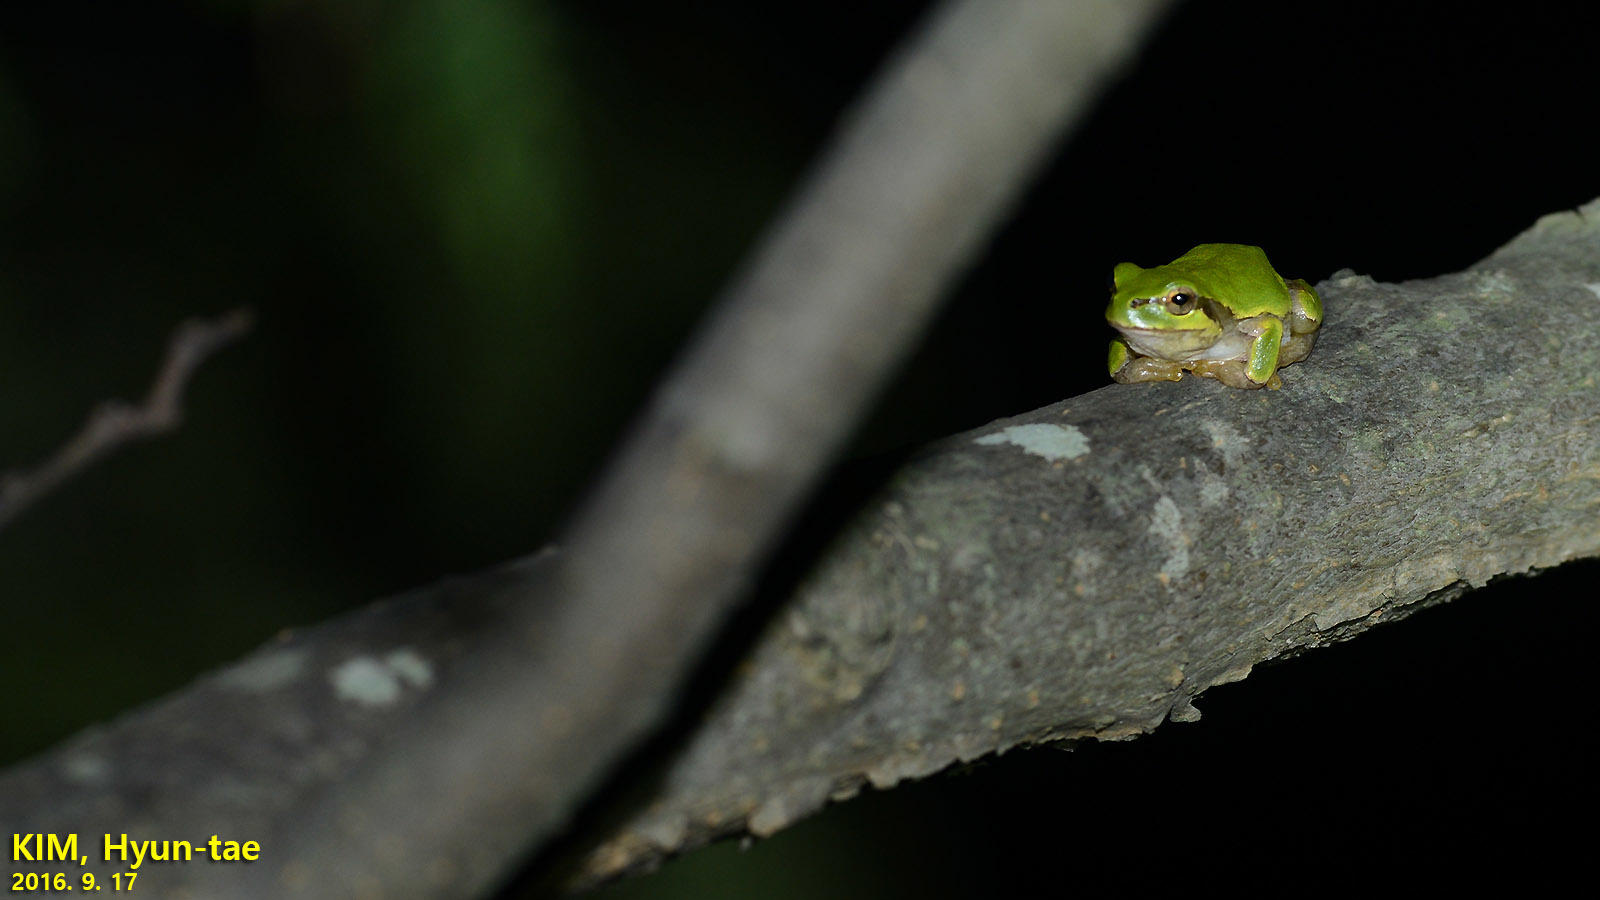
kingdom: Animalia
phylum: Chordata
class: Amphibia
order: Anura
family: Hylidae
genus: Dryophytes
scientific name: Dryophytes japonicus
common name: Japanese treefrog
